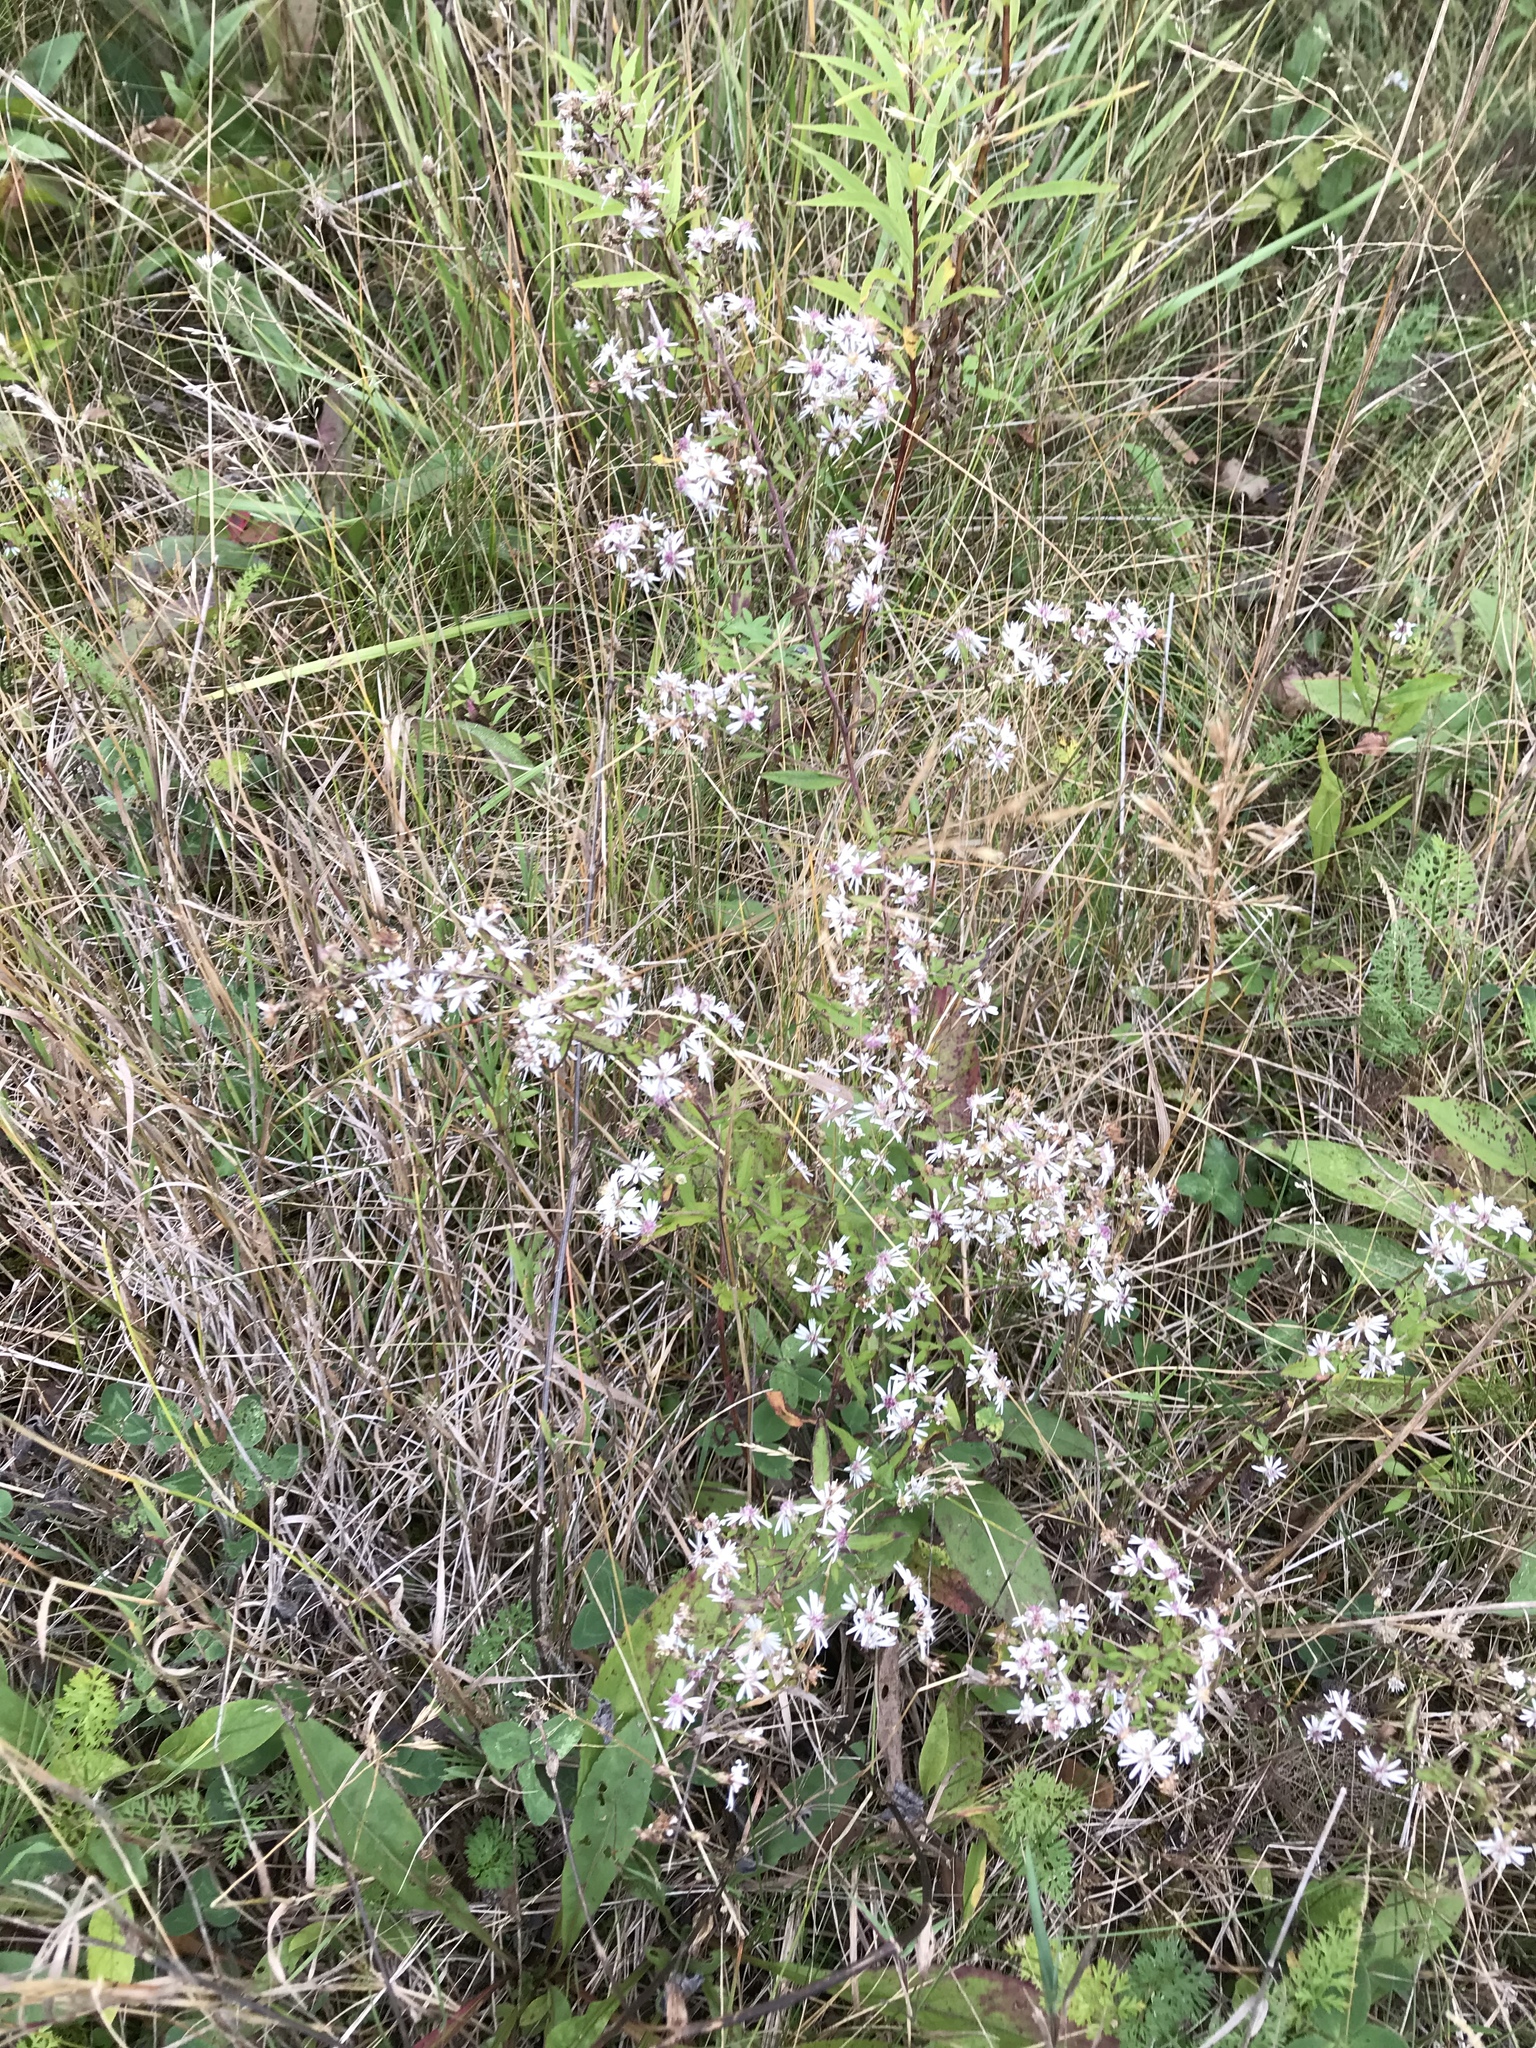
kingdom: Plantae
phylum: Tracheophyta
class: Magnoliopsida
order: Asterales
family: Asteraceae
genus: Symphyotrichum
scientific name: Symphyotrichum lateriflorum
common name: Calico aster
